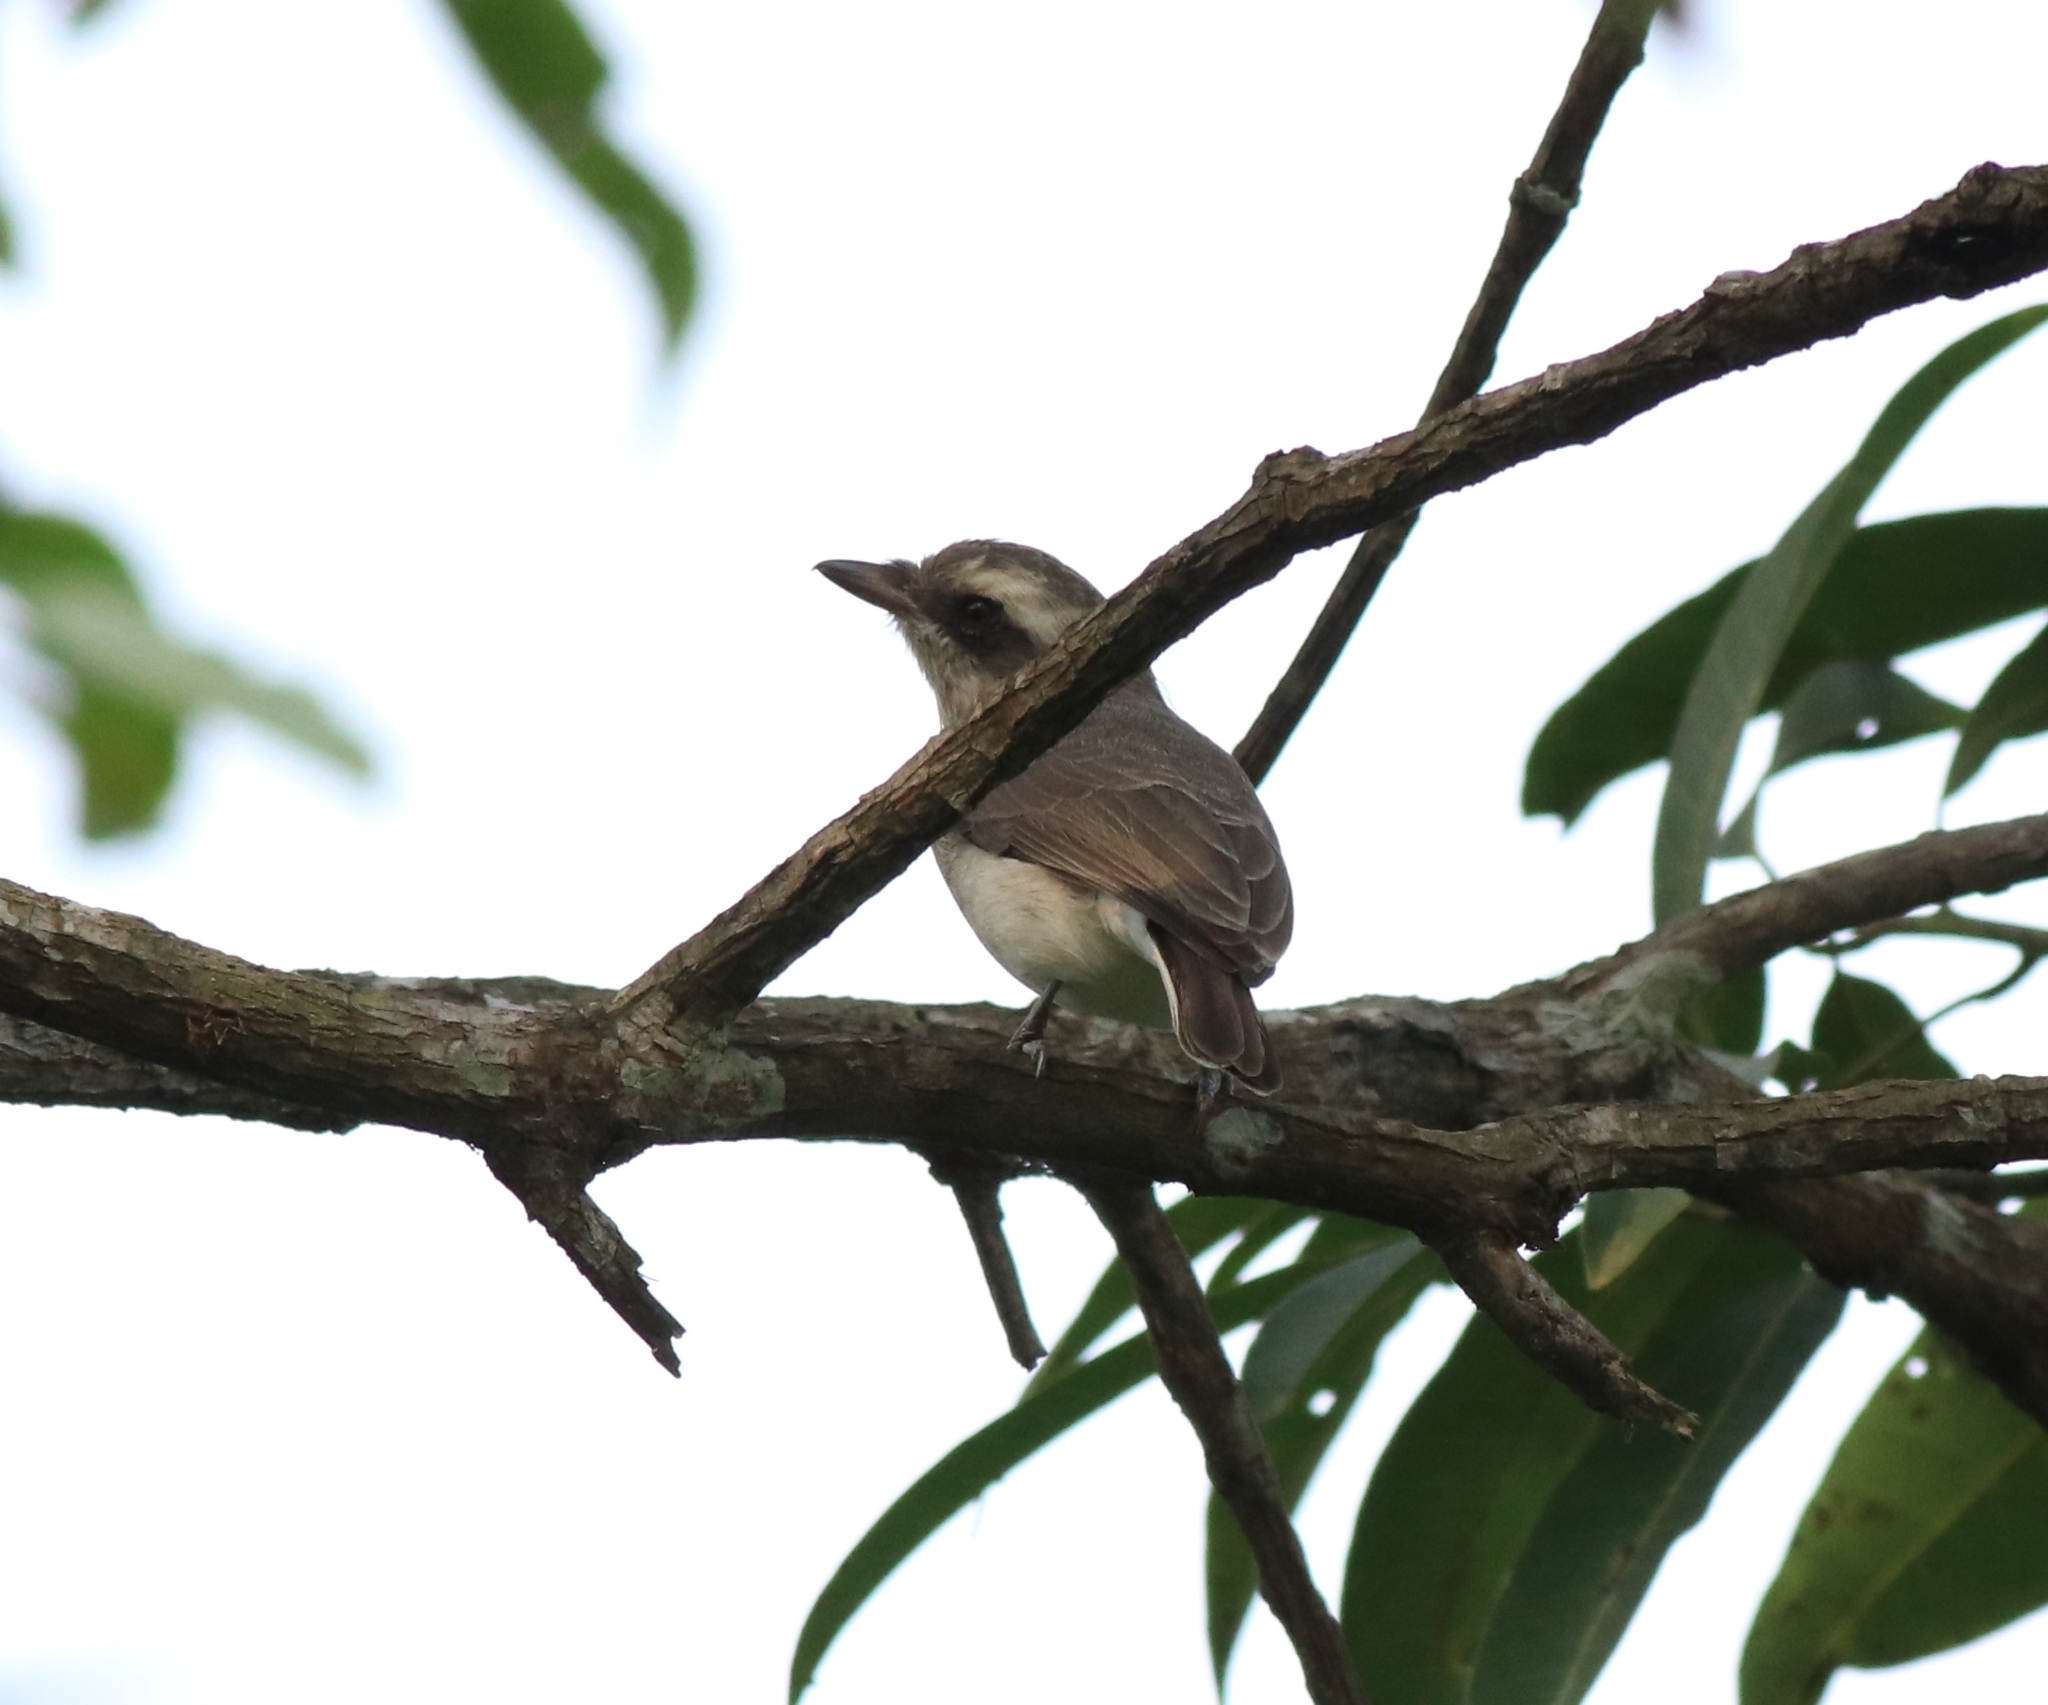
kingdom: Animalia
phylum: Chordata
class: Aves
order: Passeriformes
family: Tephrodornithidae
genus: Tephrodornis
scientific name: Tephrodornis pondicerianus
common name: Common woodshrike
